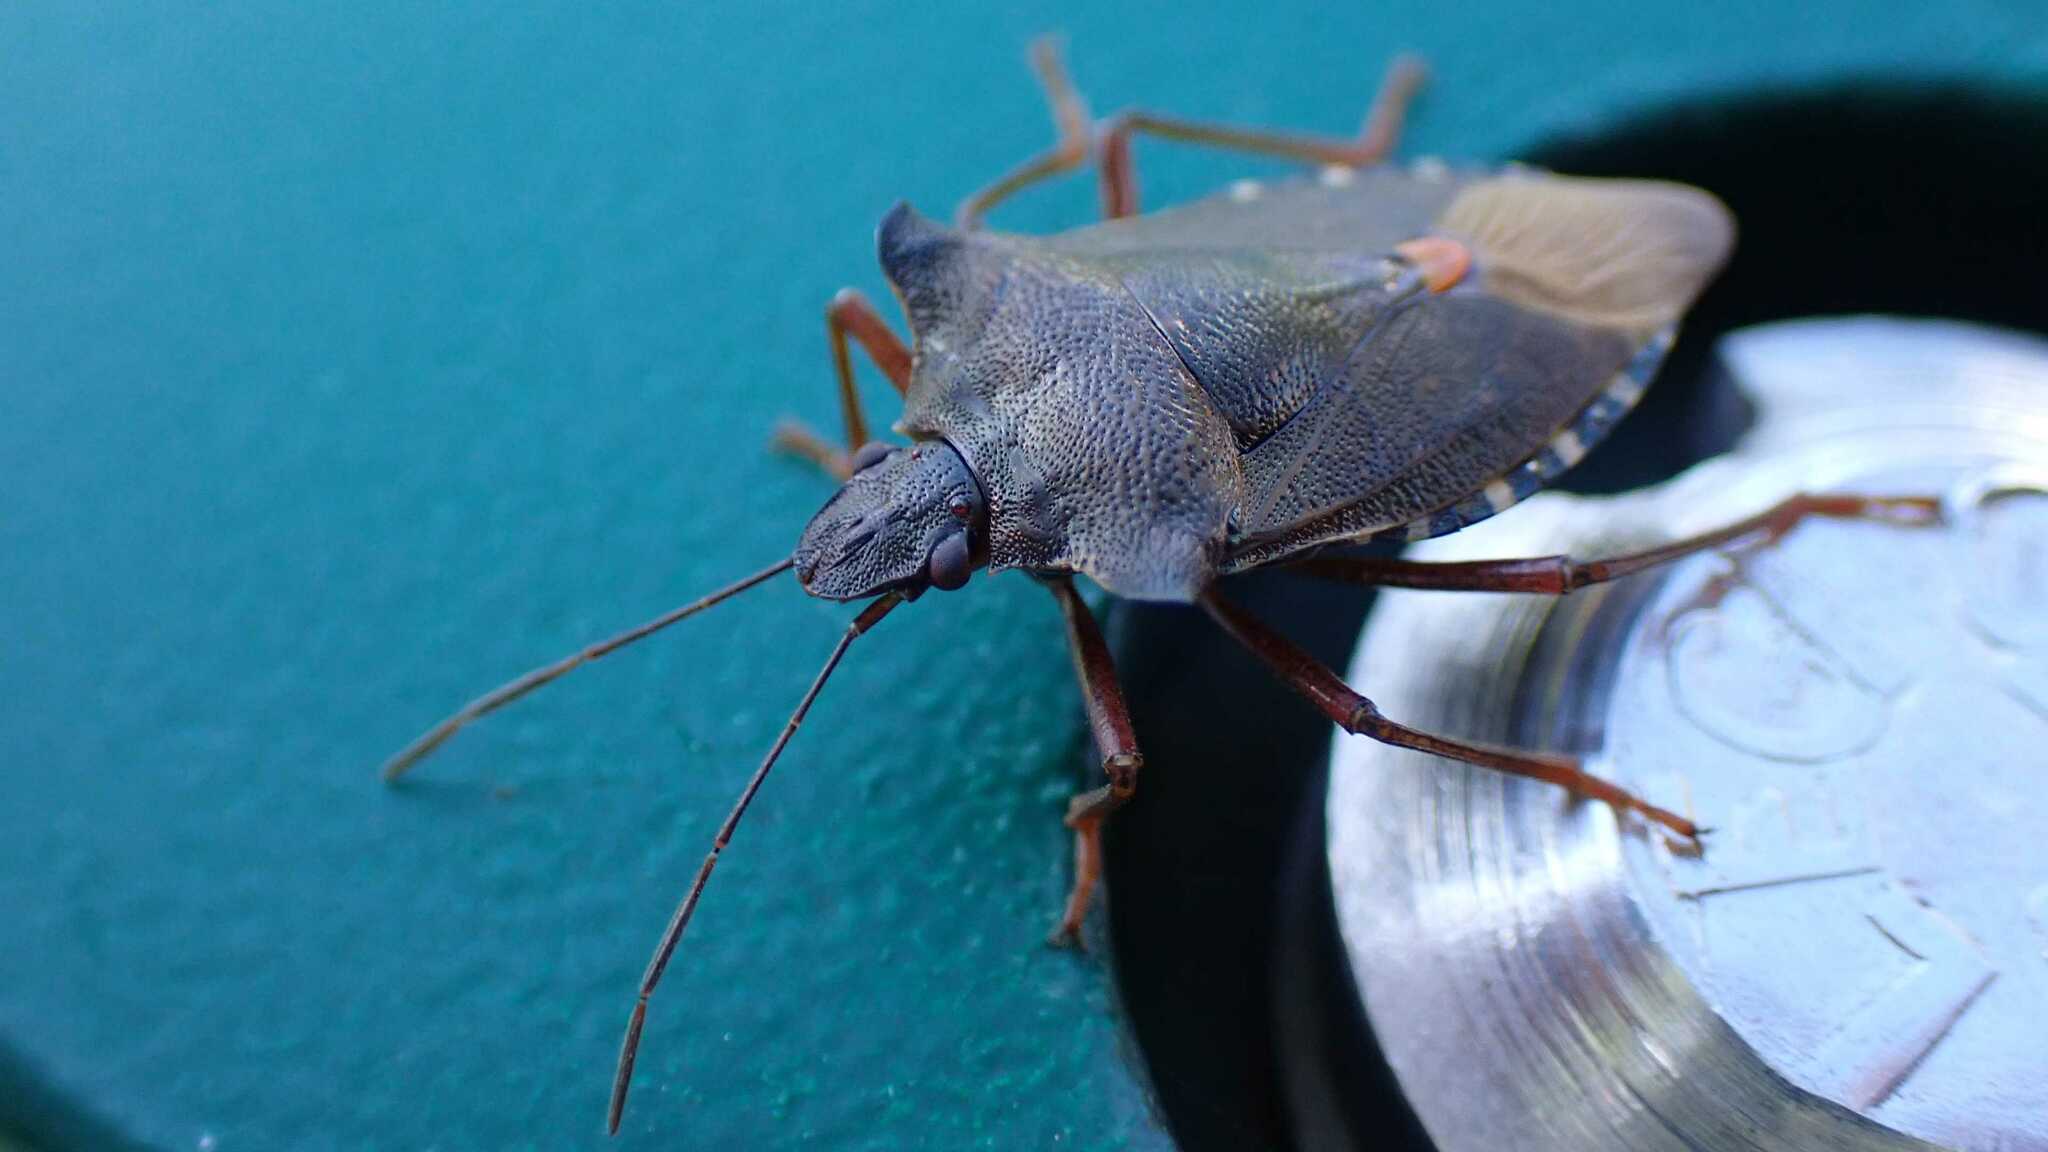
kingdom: Animalia
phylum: Arthropoda
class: Insecta
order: Hemiptera
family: Pentatomidae
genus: Pentatoma
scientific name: Pentatoma rufipes
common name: Forest bug
